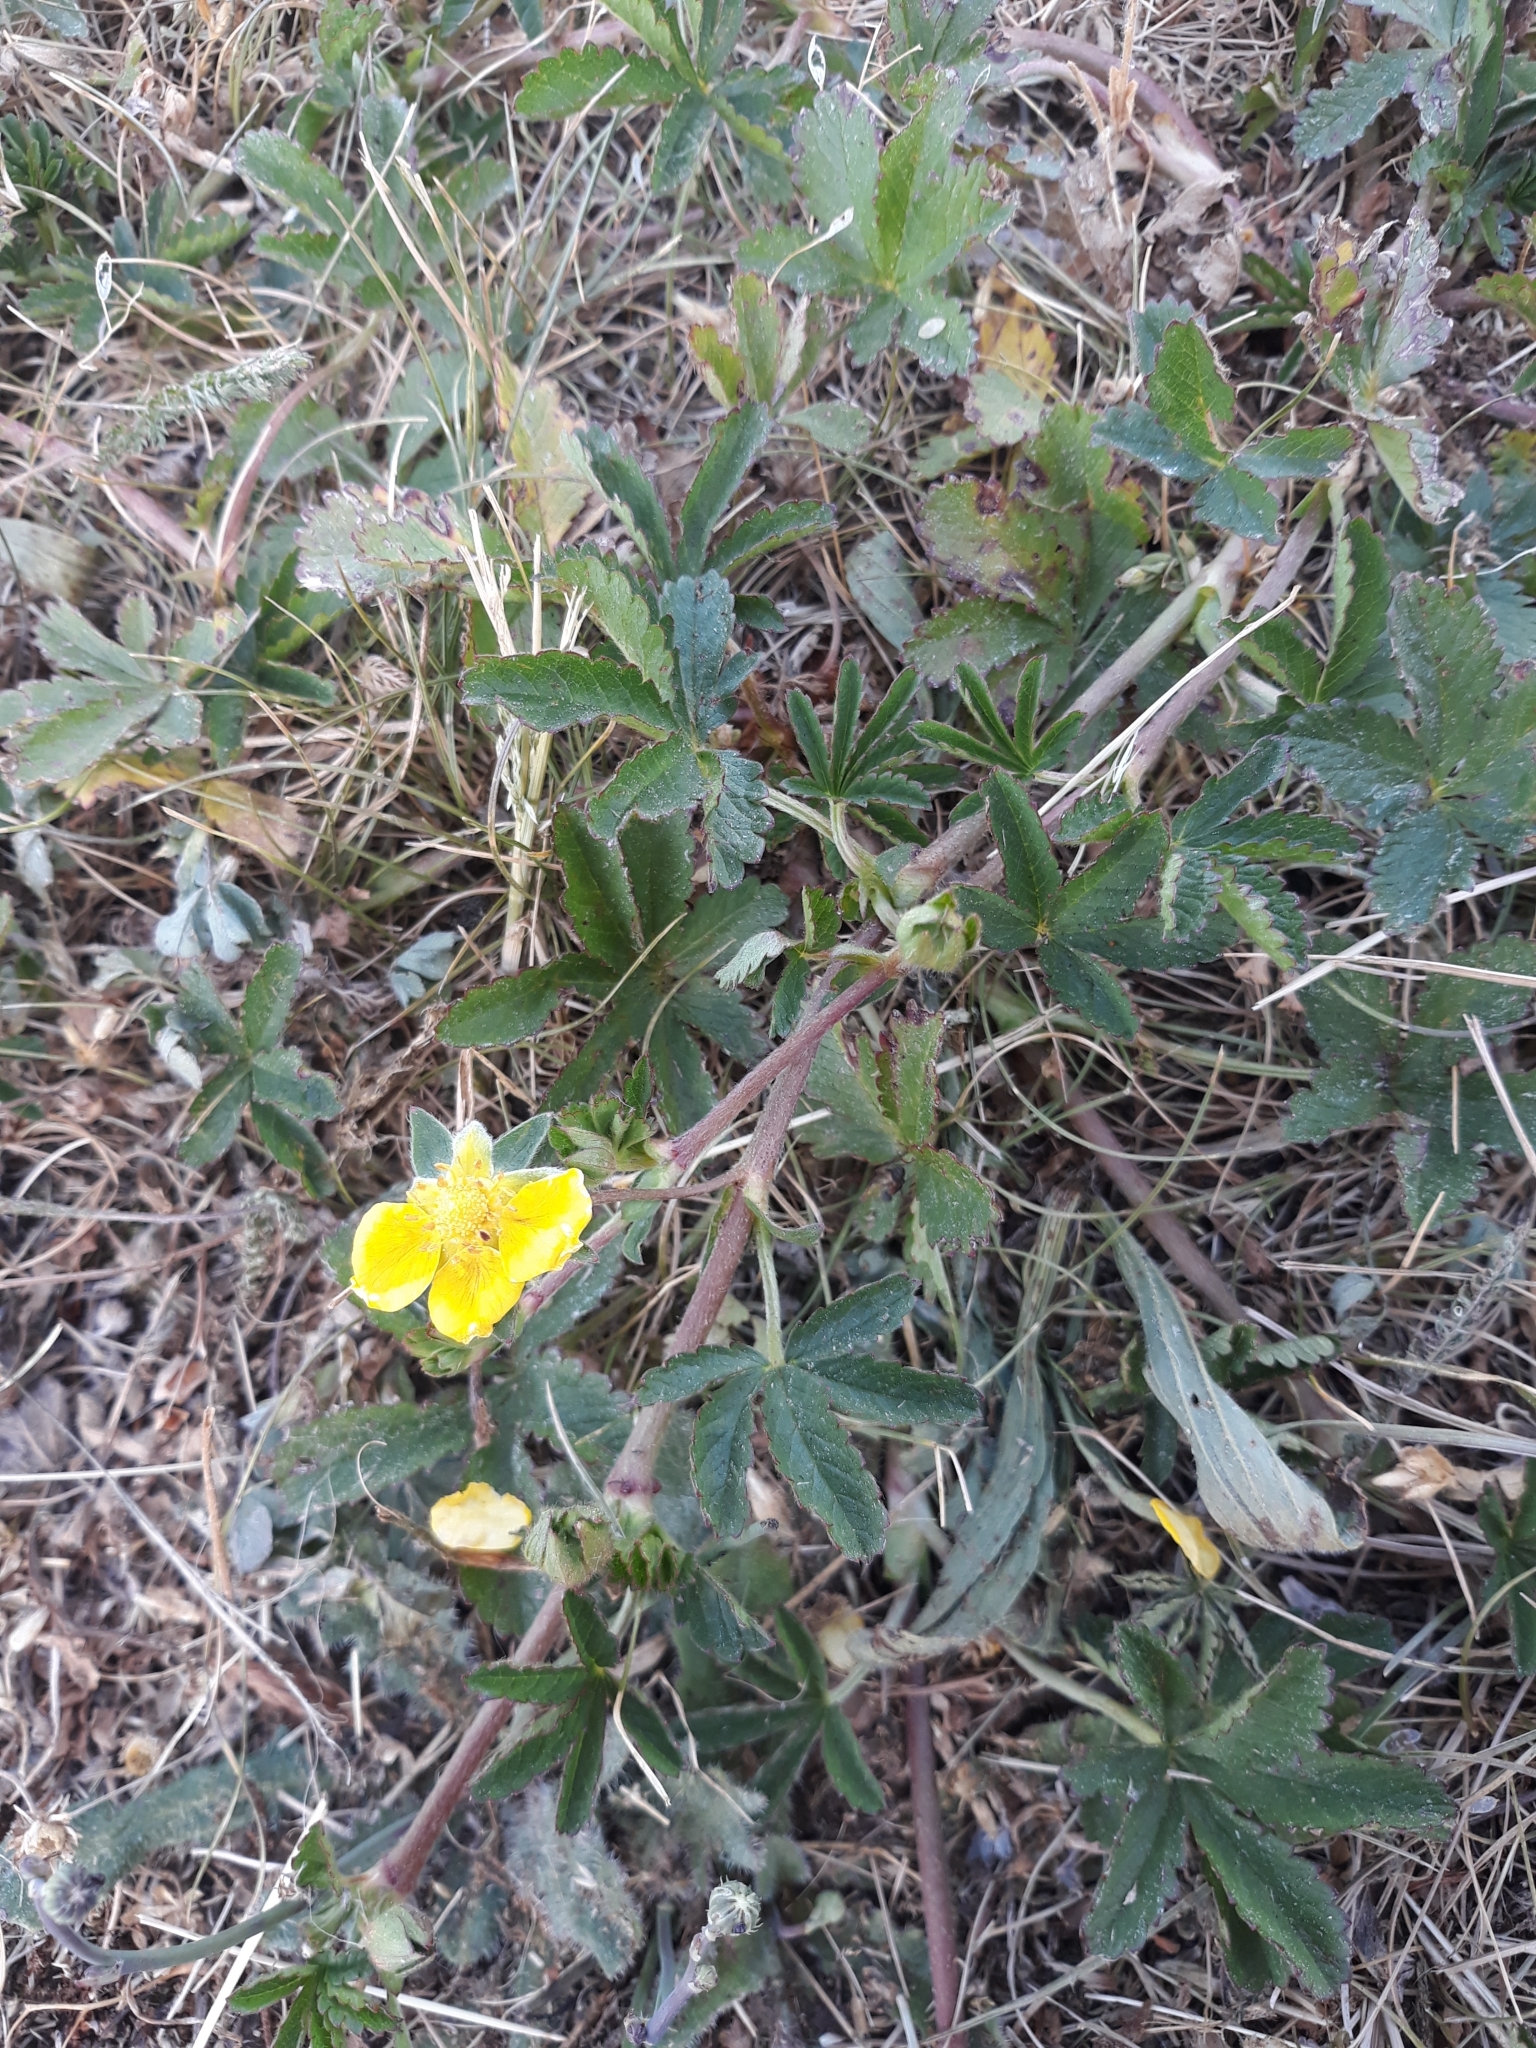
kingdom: Plantae
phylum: Tracheophyta
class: Magnoliopsida
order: Rosales
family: Rosaceae
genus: Potentilla
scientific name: Potentilla reptans
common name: Creeping cinquefoil
